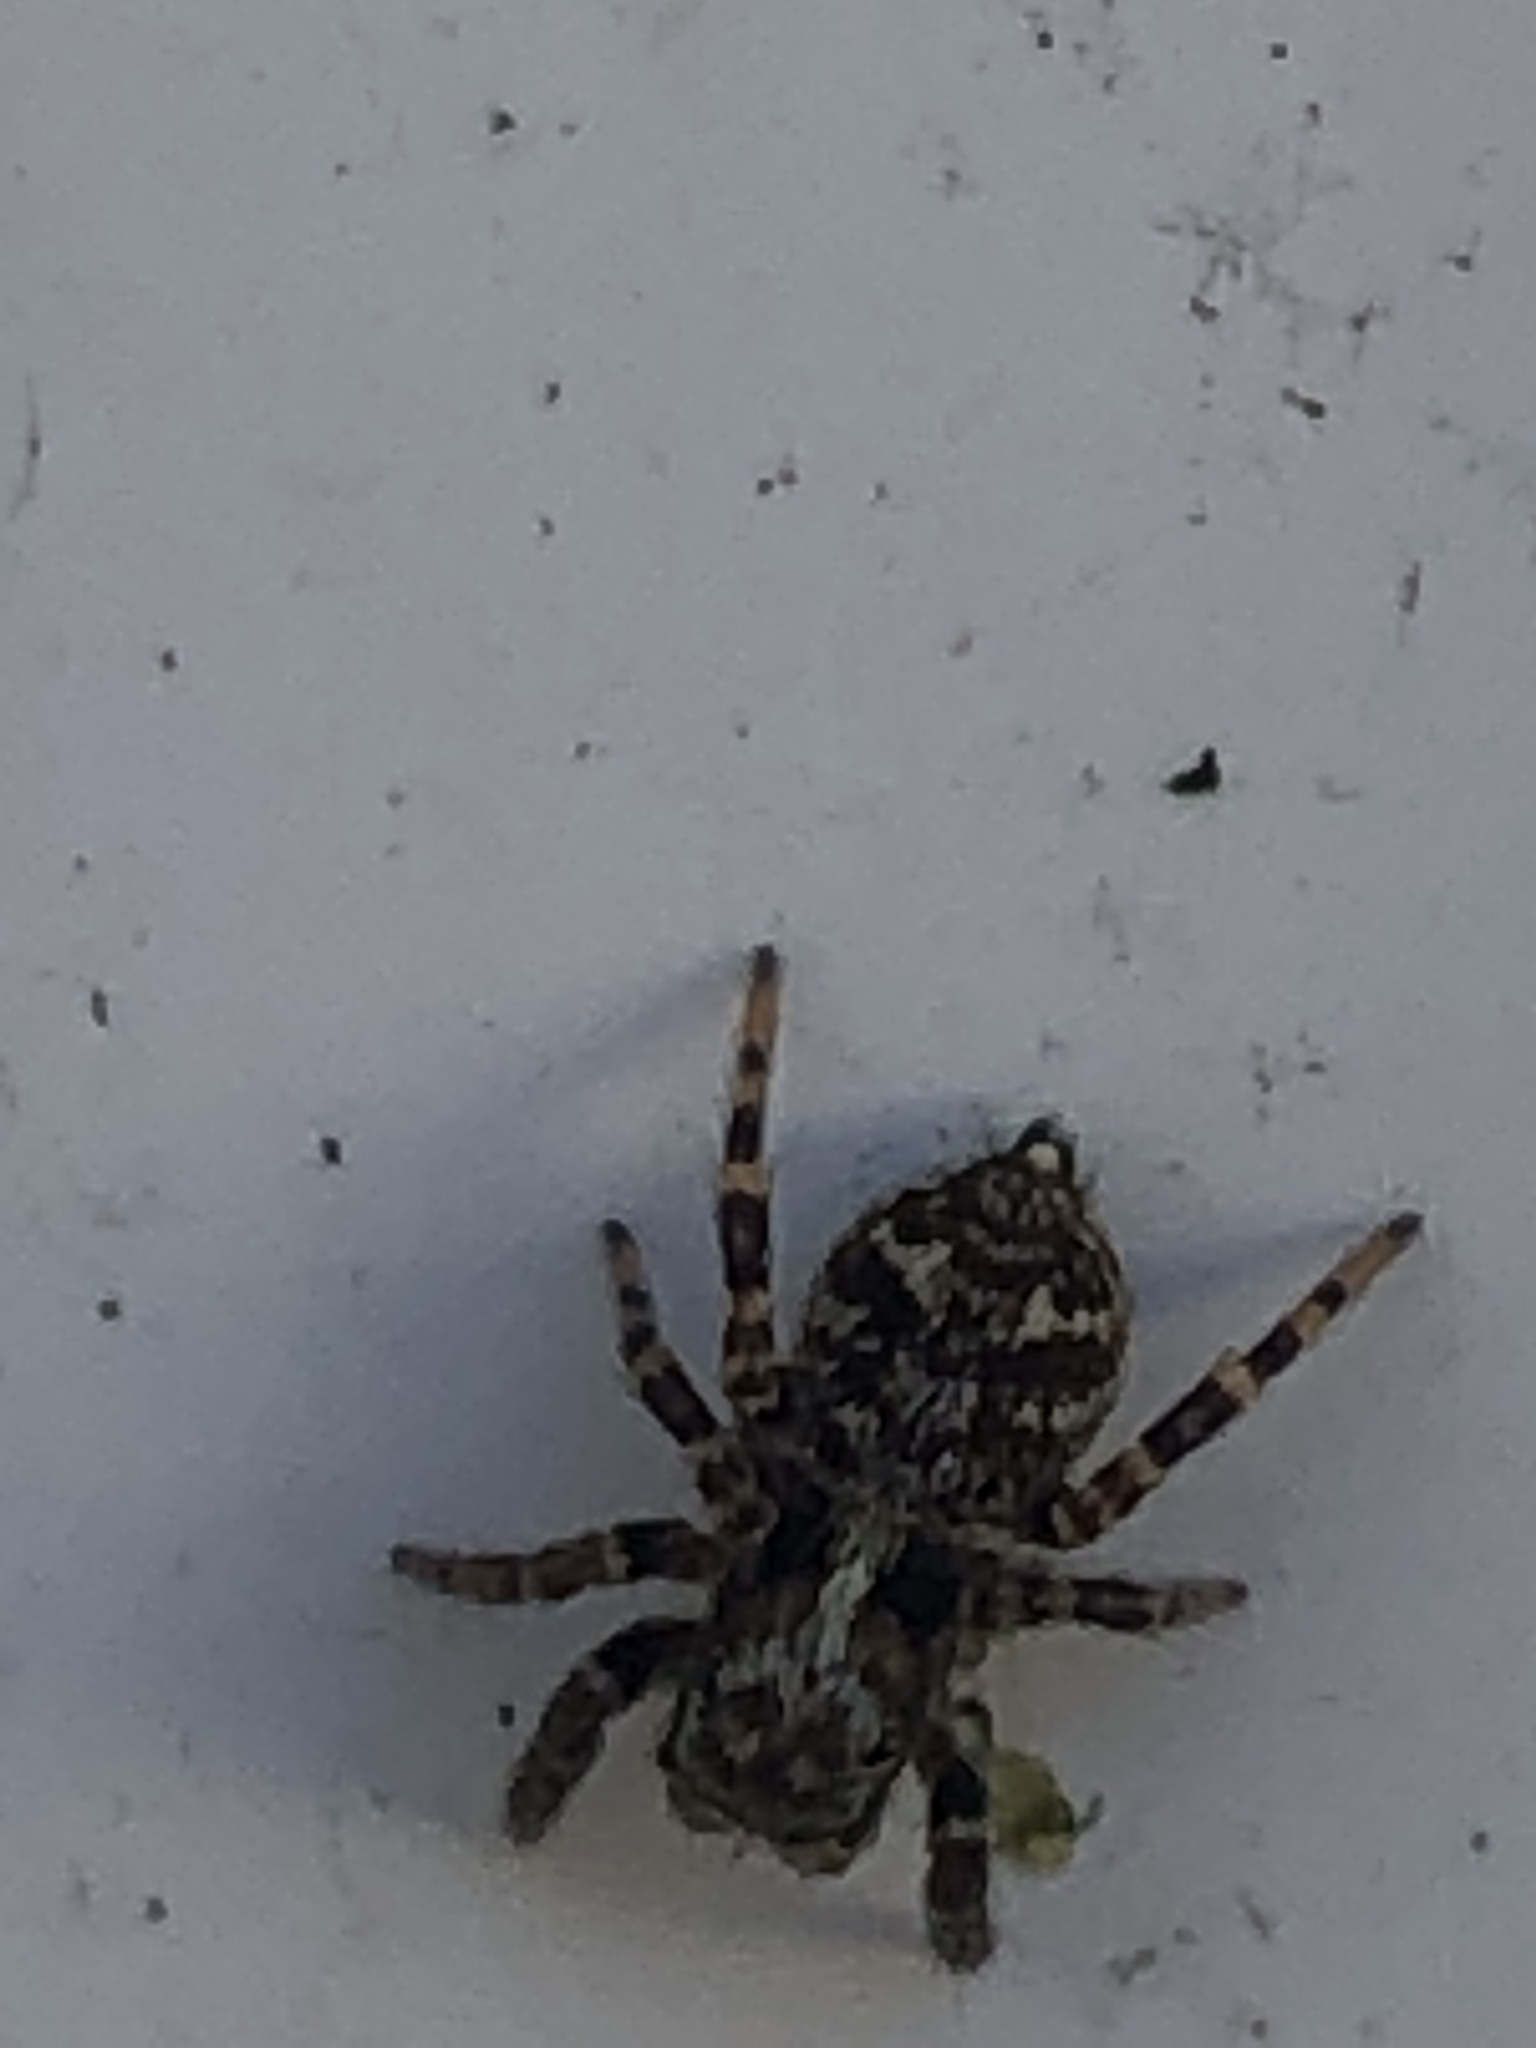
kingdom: Animalia
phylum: Arthropoda
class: Arachnida
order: Araneae
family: Salticidae
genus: Pseudeuophrys
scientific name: Pseudeuophrys erratica
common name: Jumping spider
